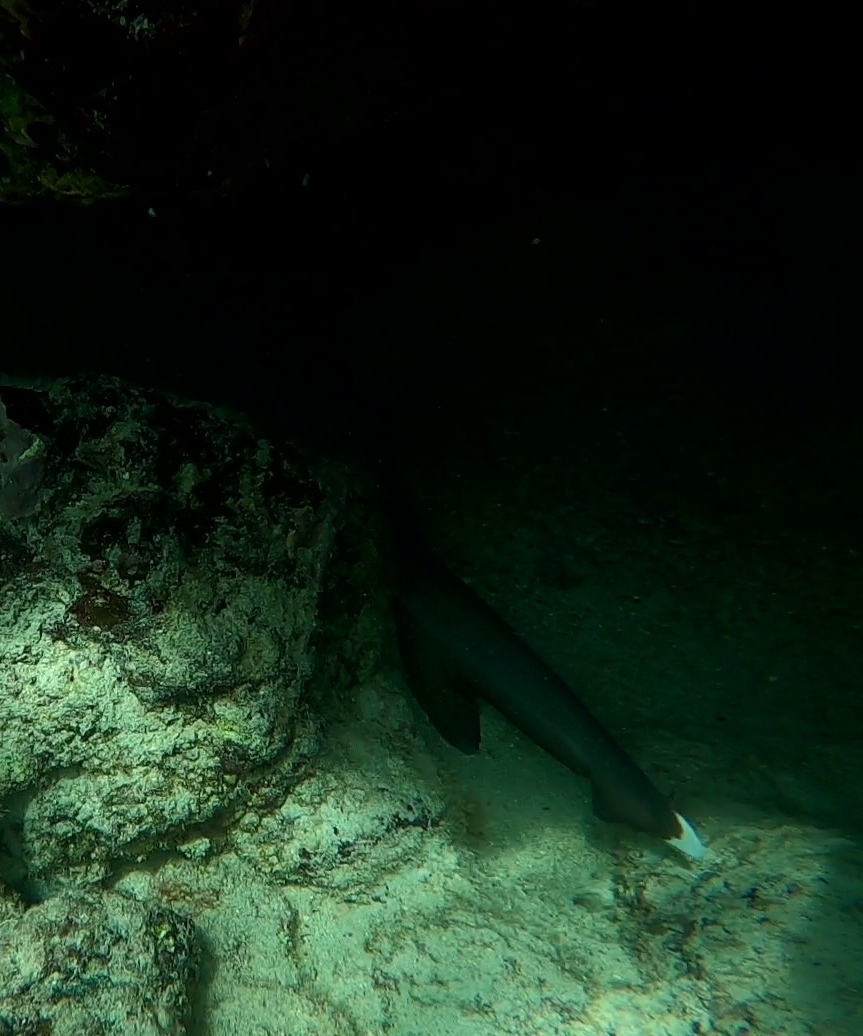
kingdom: Animalia
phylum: Chordata
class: Elasmobranchii
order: Carcharhiniformes
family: Carcharhinidae
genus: Triaenodon
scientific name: Triaenodon obesus
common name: Whitetip reef shark
